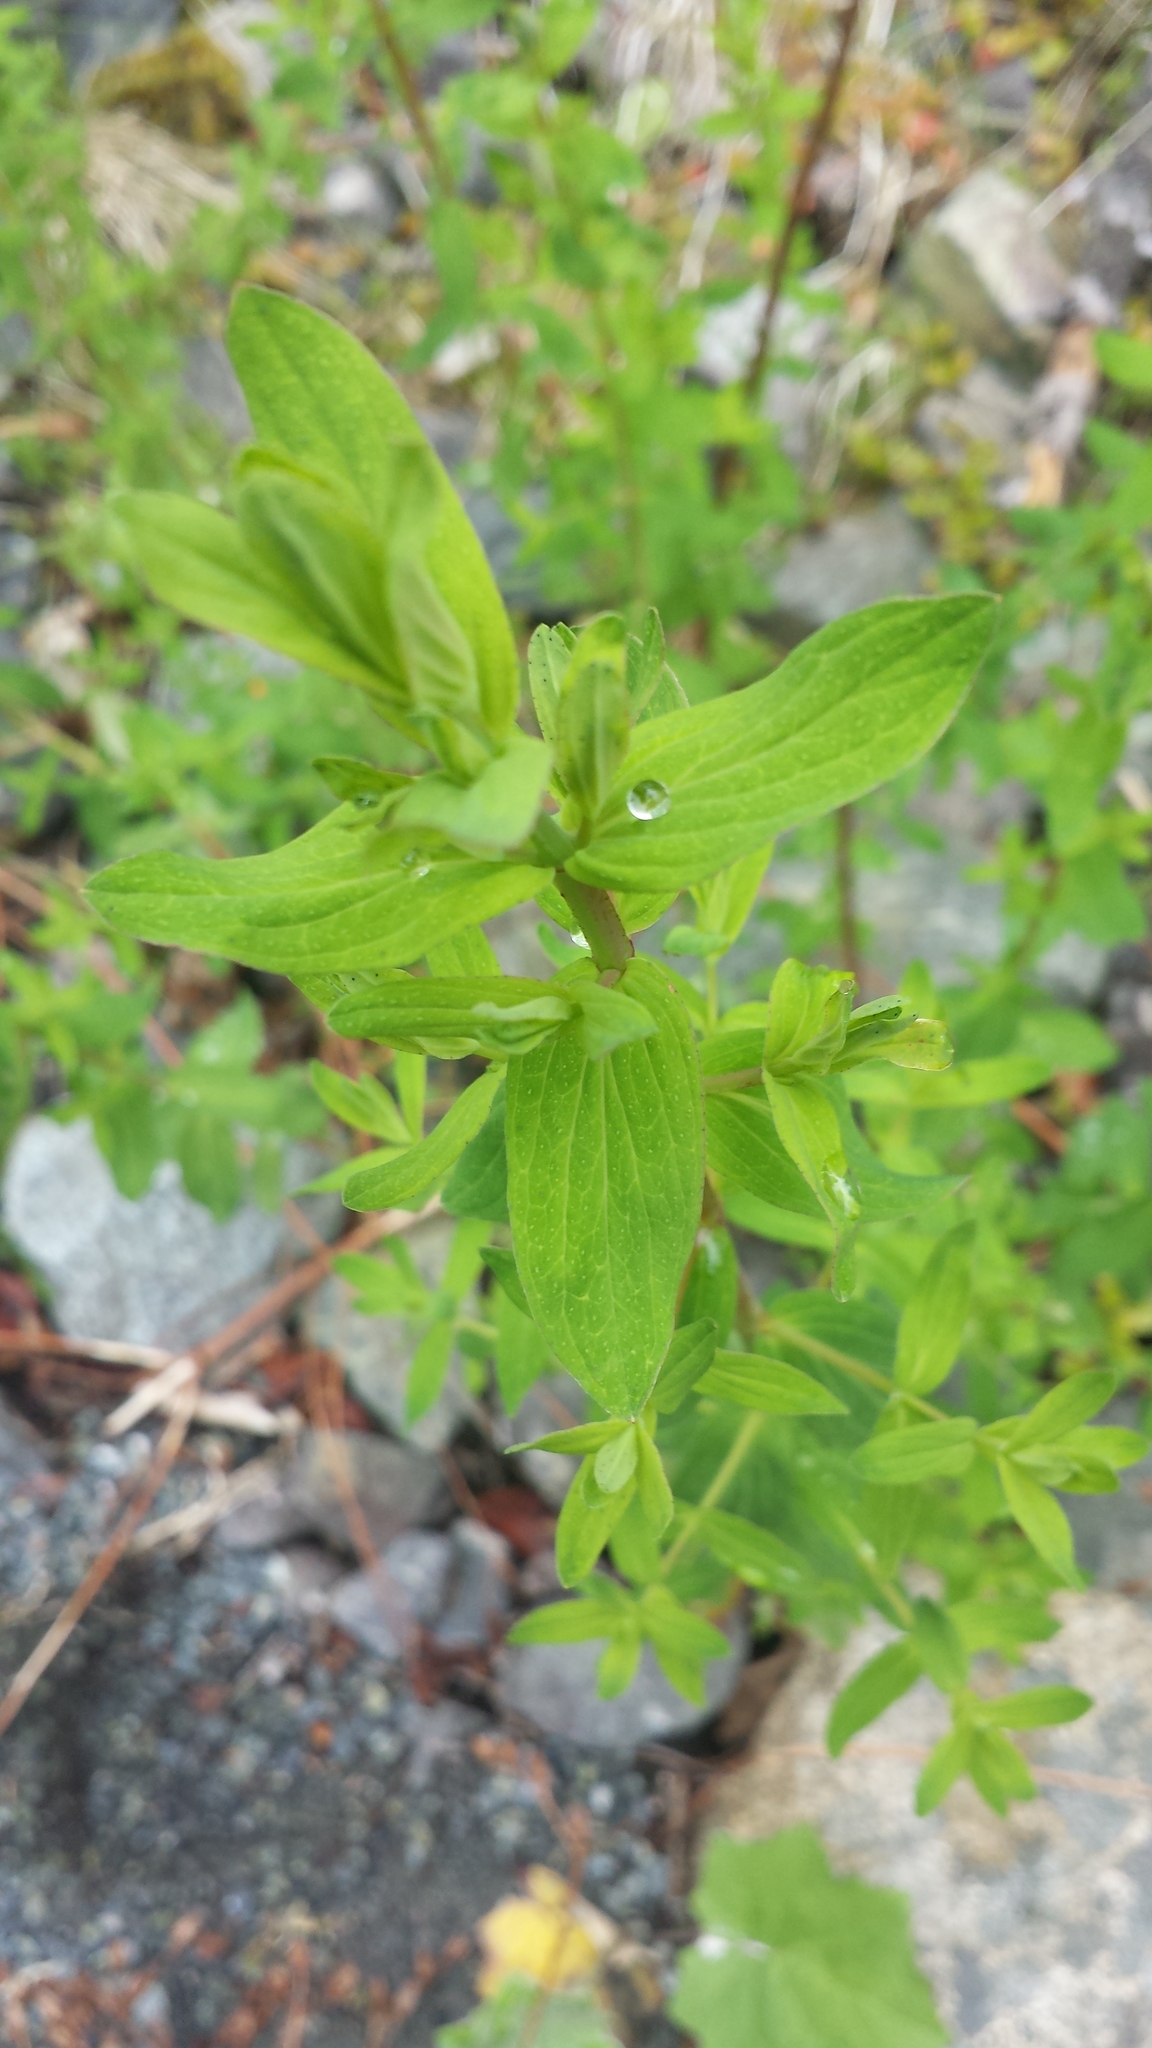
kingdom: Plantae
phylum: Tracheophyta
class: Magnoliopsida
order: Malpighiales
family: Hypericaceae
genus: Hypericum
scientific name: Hypericum perforatum
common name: Common st. johnswort
